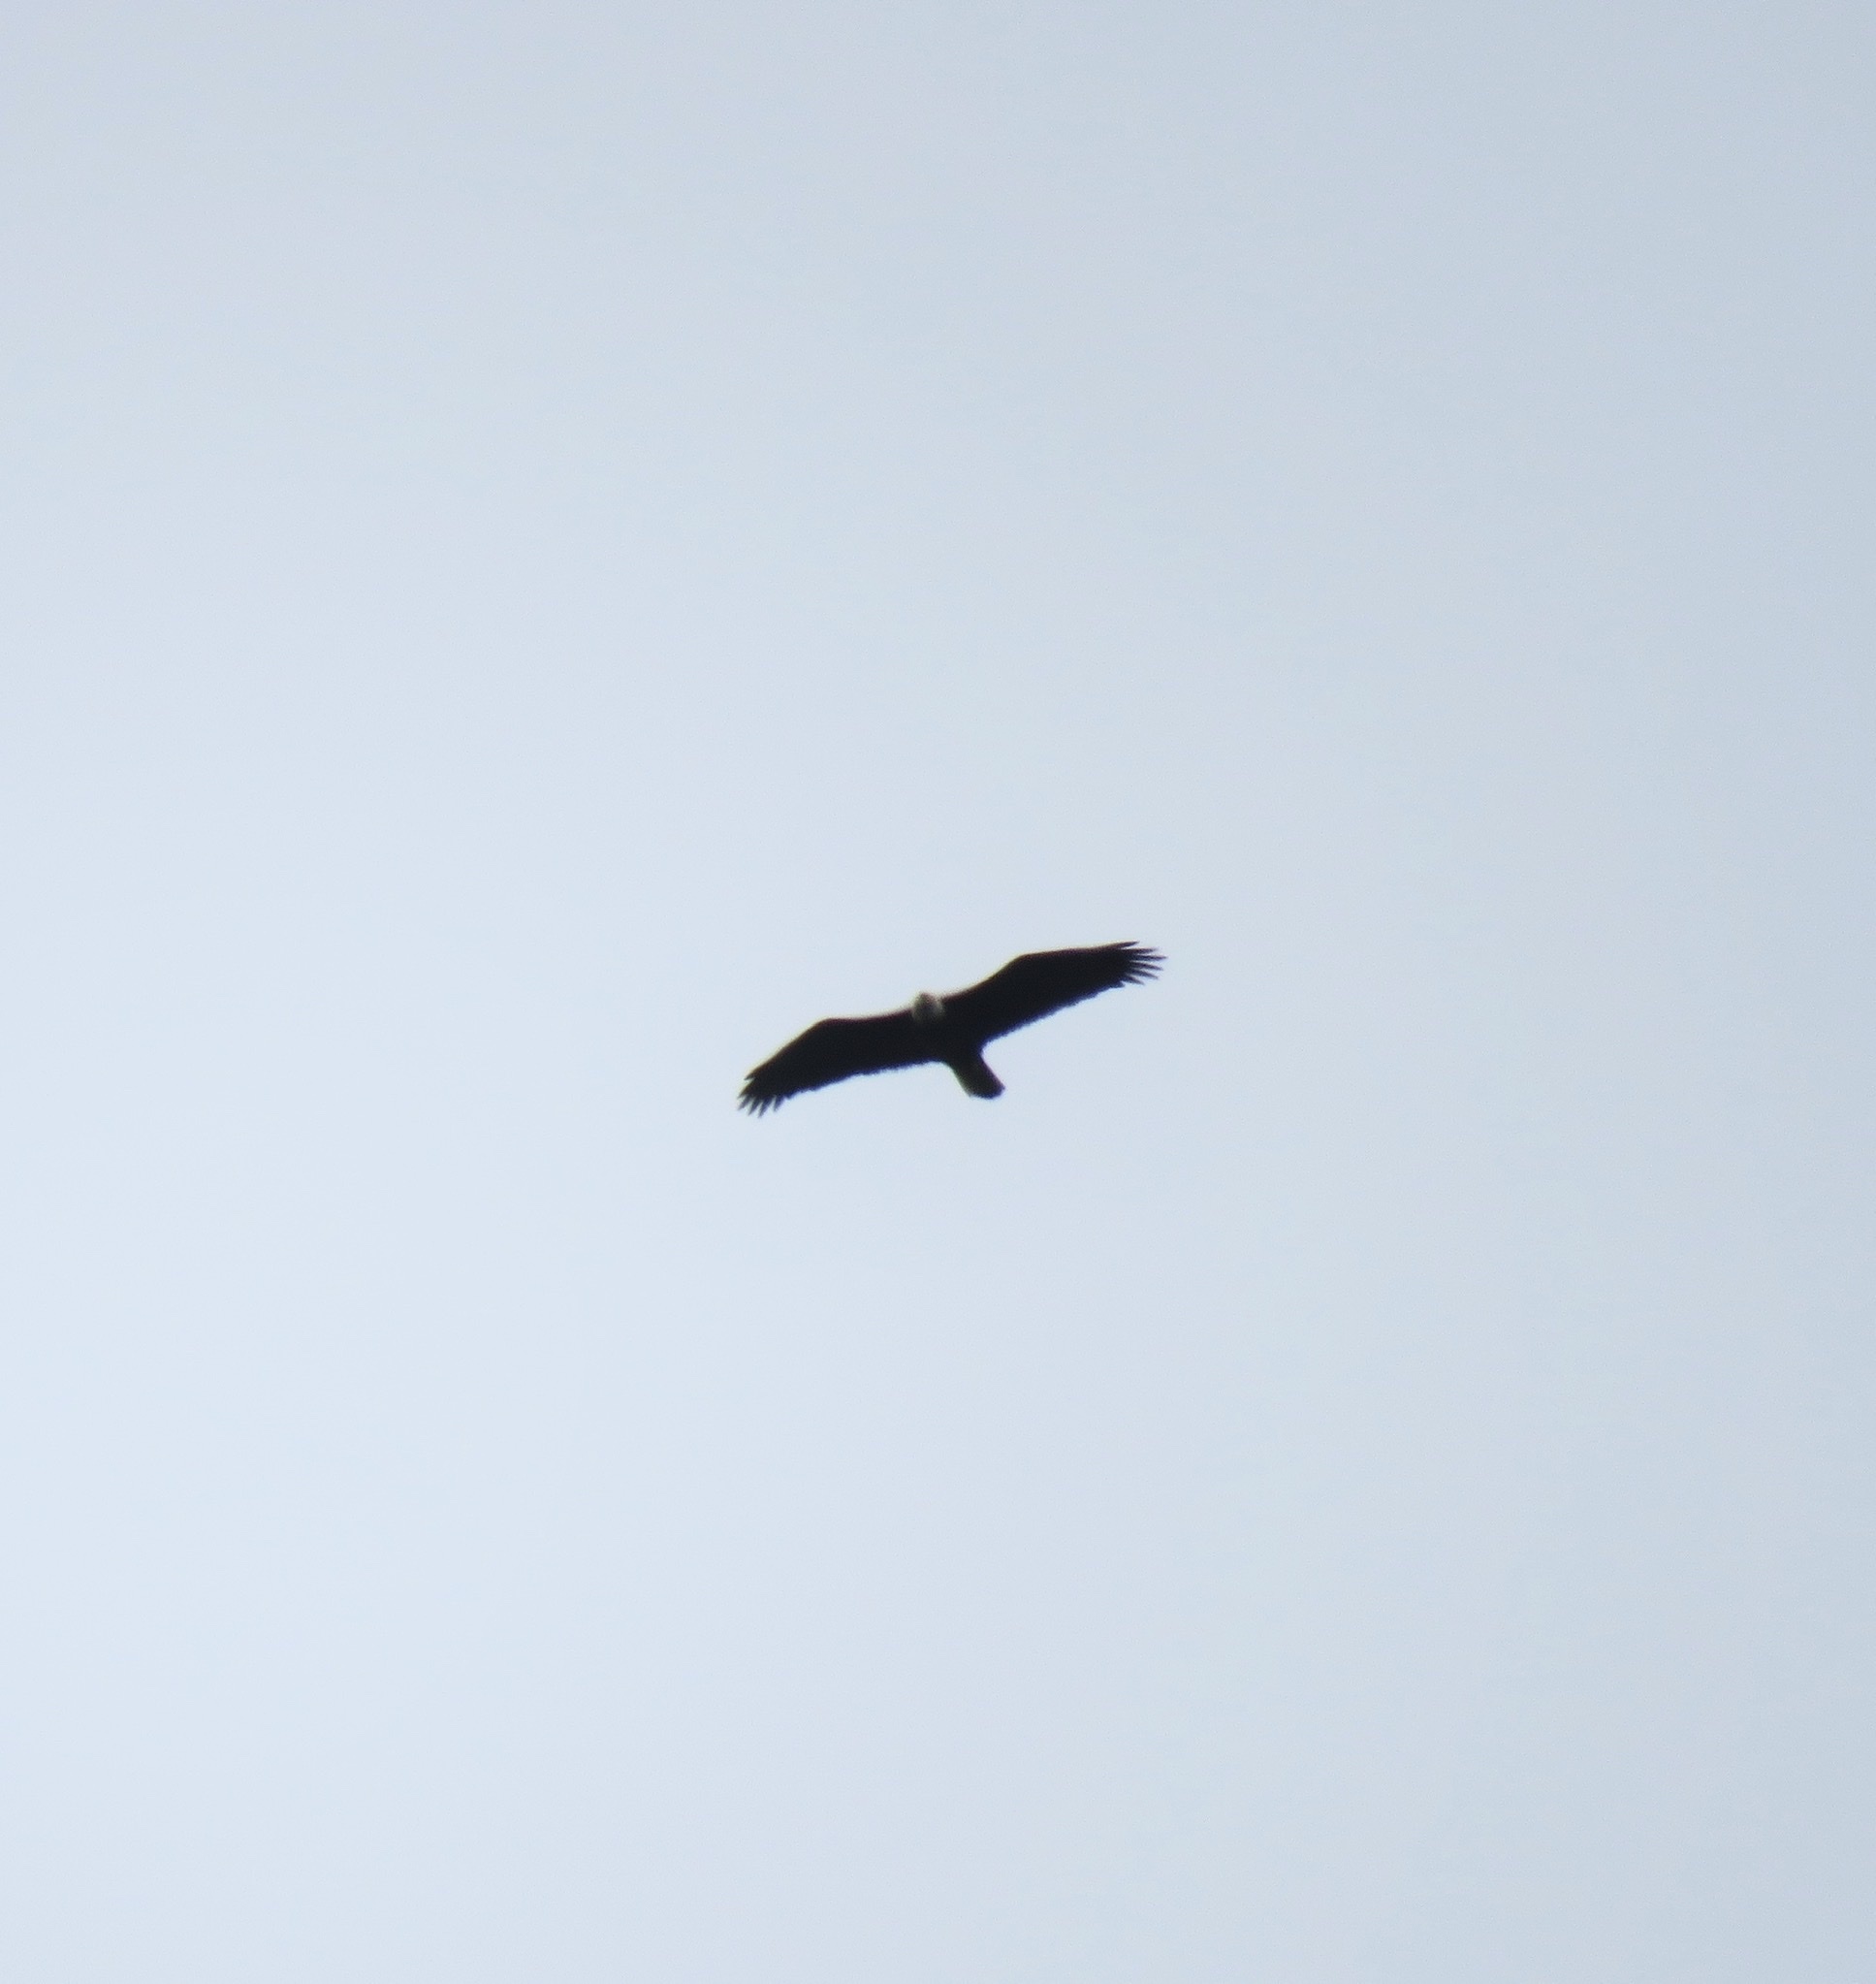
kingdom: Animalia
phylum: Chordata
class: Aves
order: Accipitriformes
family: Accipitridae
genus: Haliaeetus
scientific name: Haliaeetus leucocephalus
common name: Bald eagle
